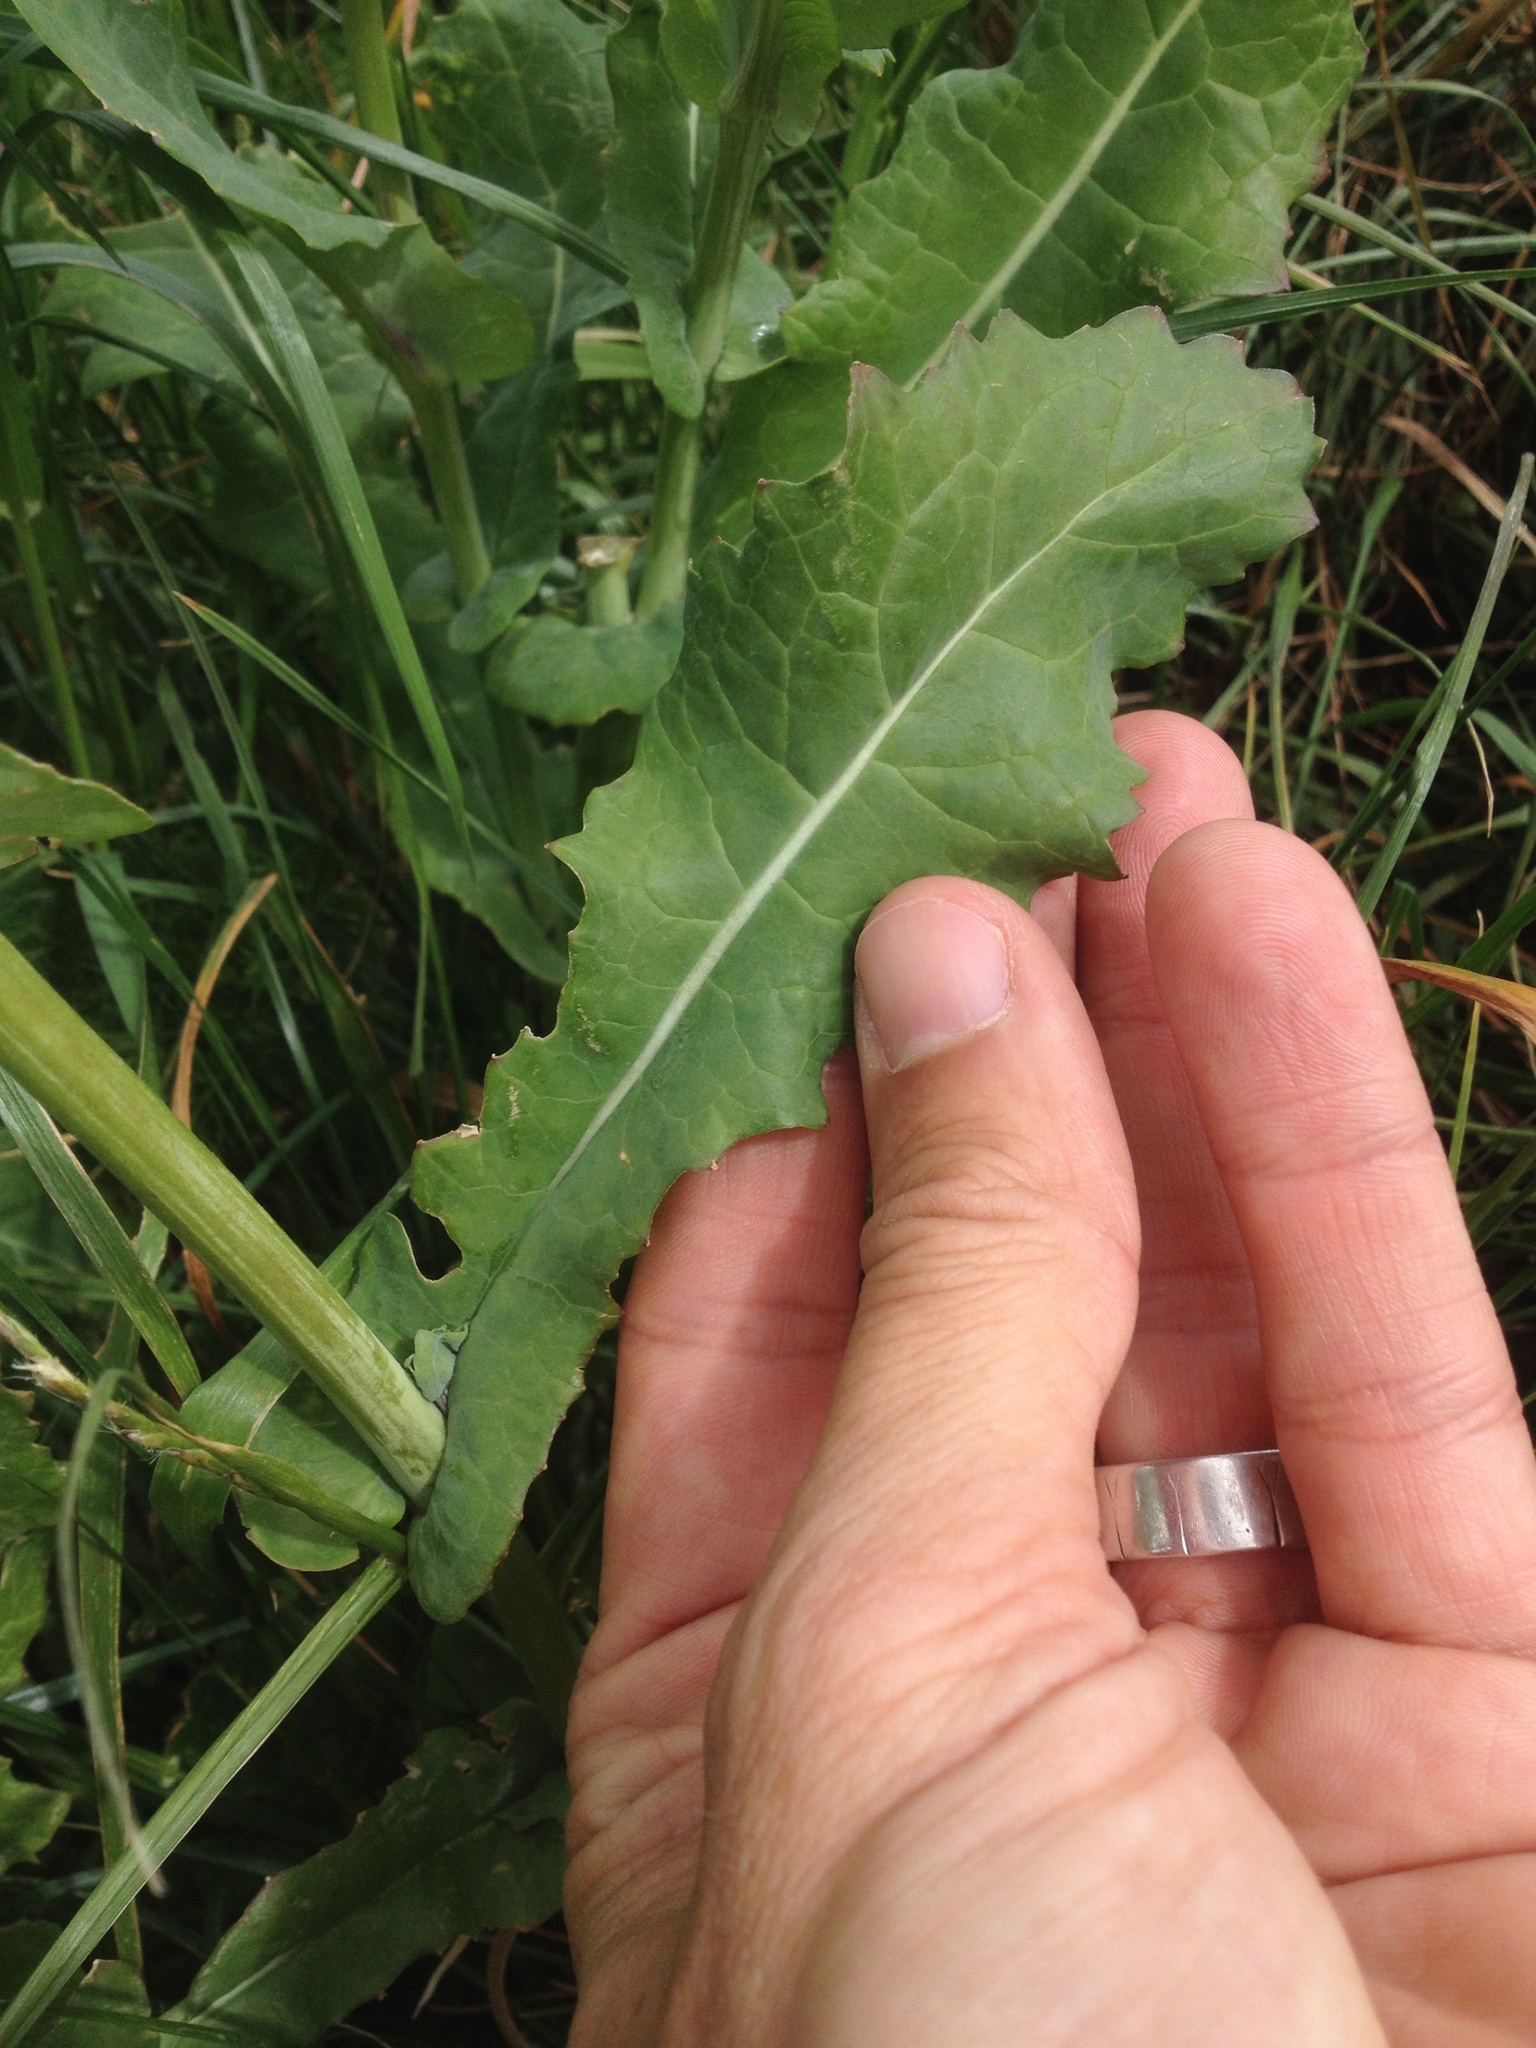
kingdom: Plantae
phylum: Tracheophyta
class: Magnoliopsida
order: Brassicales
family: Brassicaceae
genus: Brassica
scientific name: Brassica rapa
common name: Field mustard
